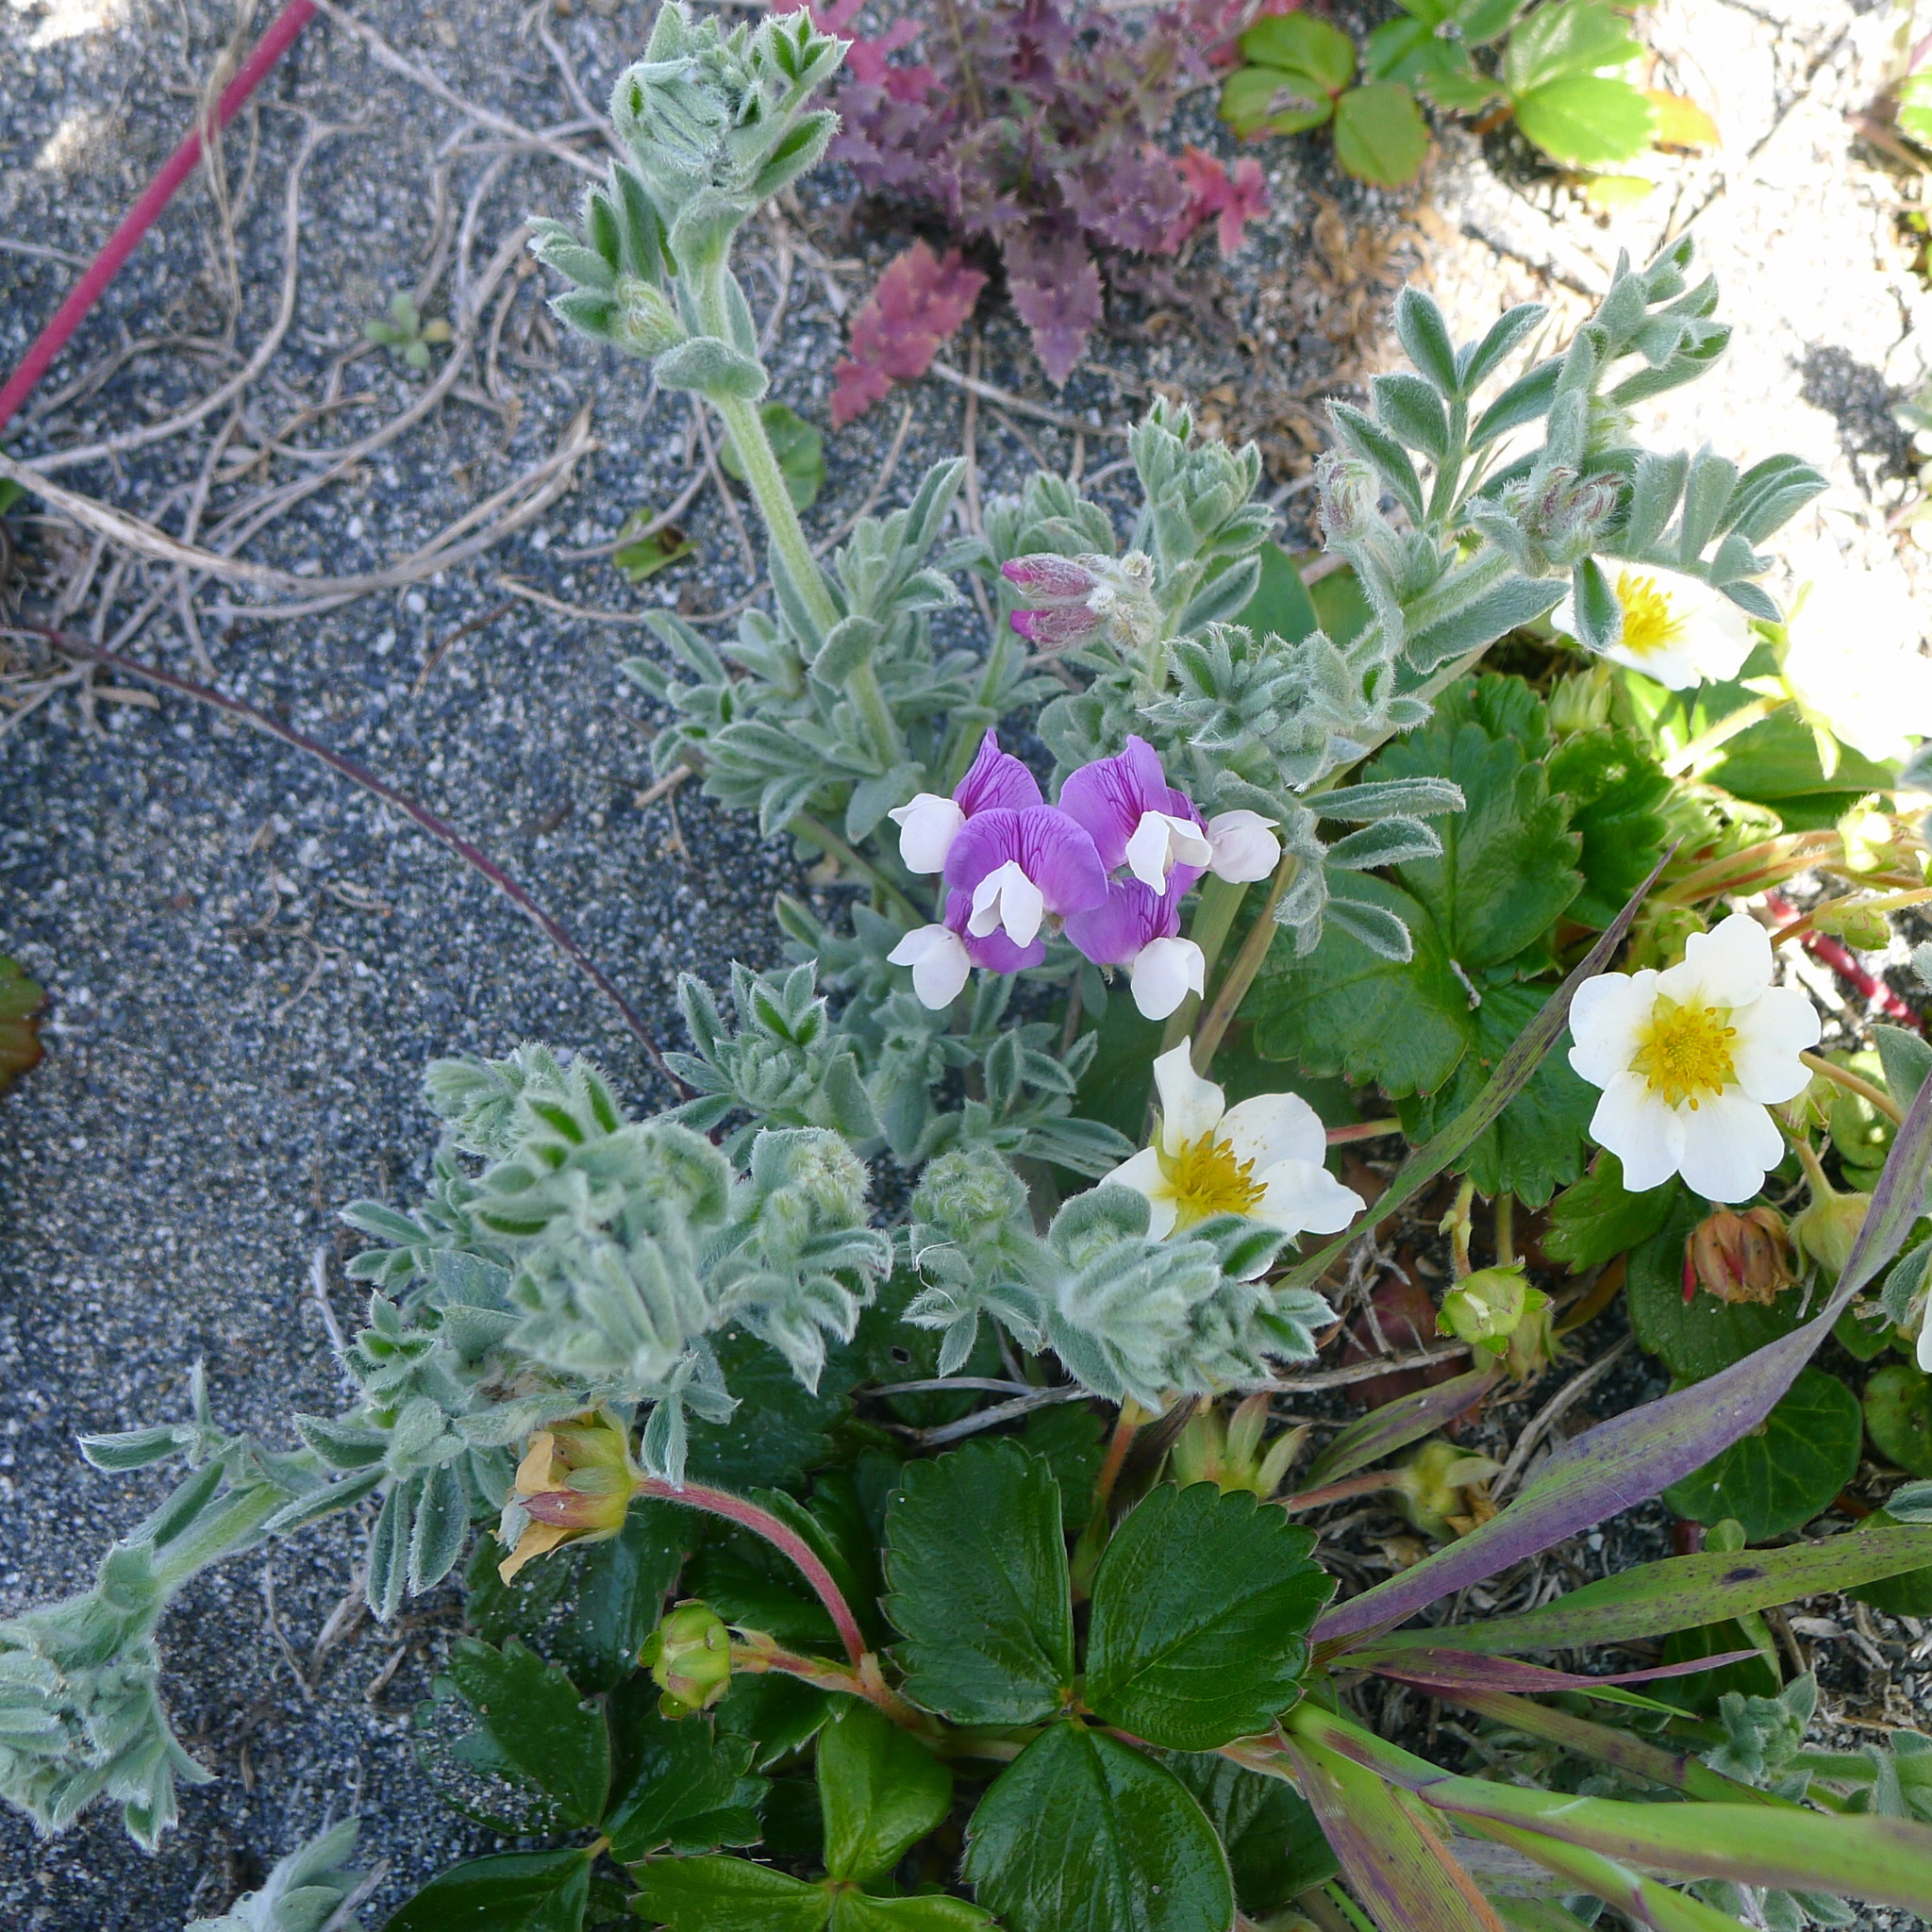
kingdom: Plantae
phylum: Tracheophyta
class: Magnoliopsida
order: Fabales
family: Fabaceae
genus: Lathyrus
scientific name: Lathyrus littoralis
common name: Dune sweet pea
